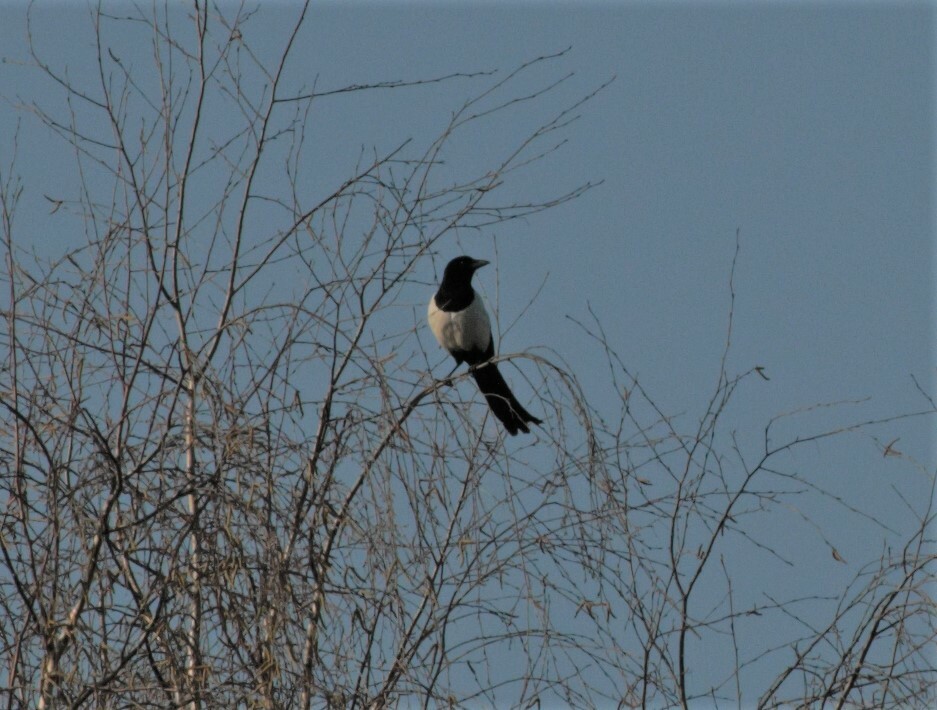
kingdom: Animalia
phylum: Chordata
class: Aves
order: Passeriformes
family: Corvidae
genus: Pica
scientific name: Pica pica
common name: Eurasian magpie
